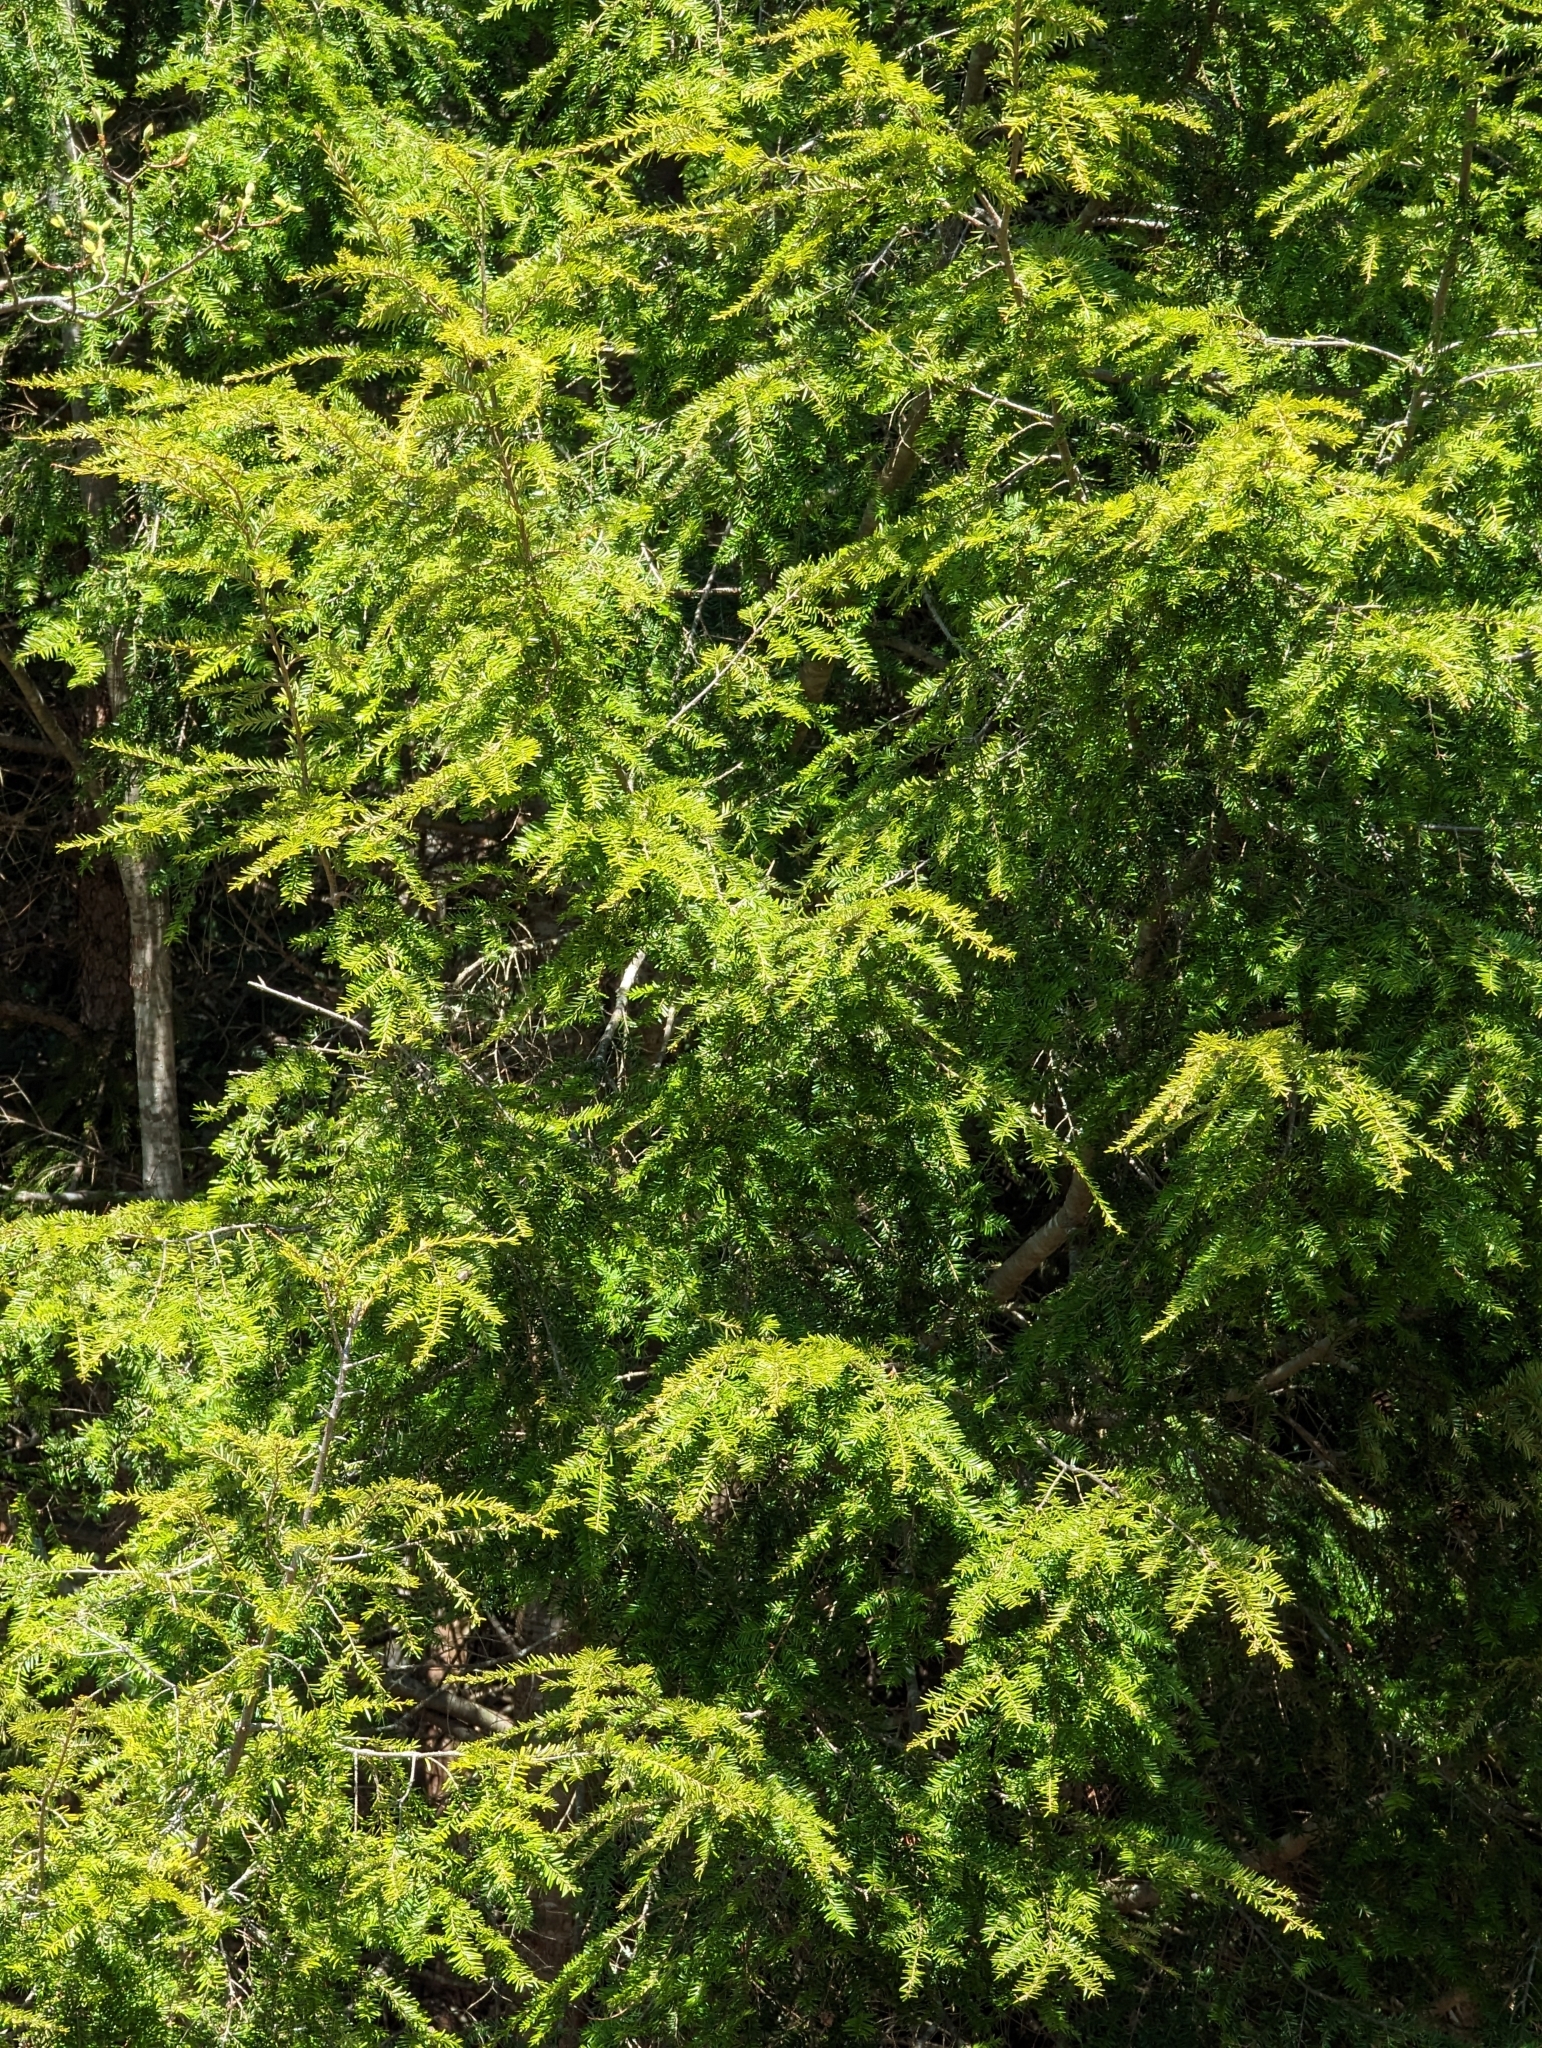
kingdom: Plantae
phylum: Tracheophyta
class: Pinopsida
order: Pinales
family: Pinaceae
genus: Tsuga
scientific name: Tsuga canadensis
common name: Eastern hemlock
